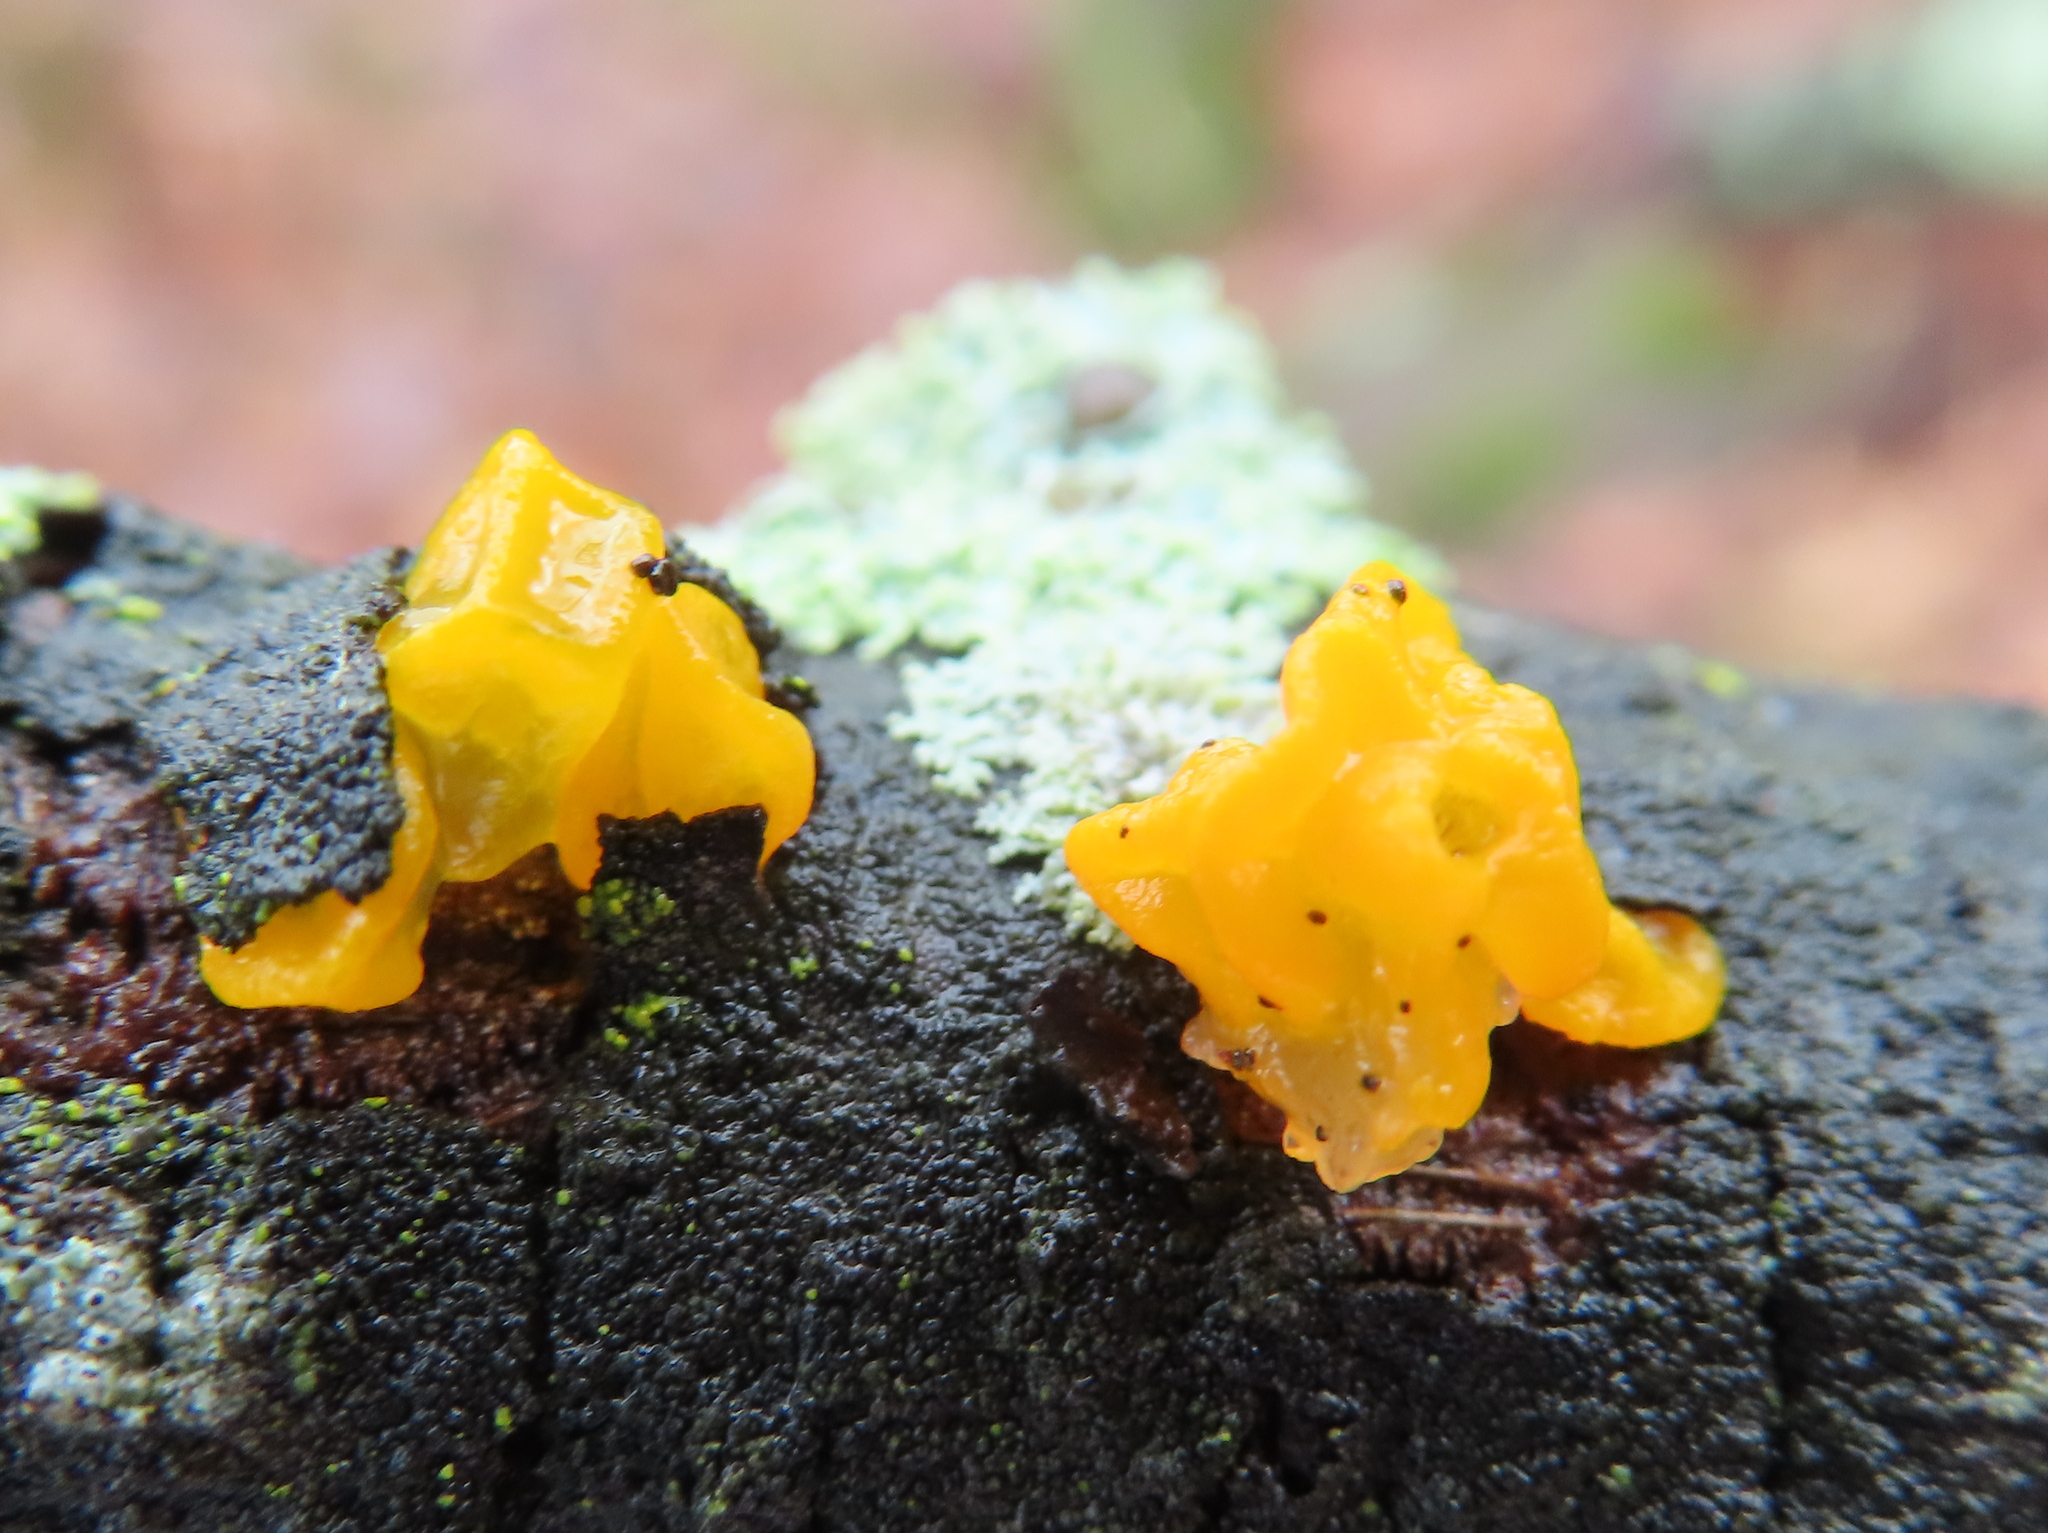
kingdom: Fungi
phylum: Basidiomycota
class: Tremellomycetes
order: Tremellales
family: Tremellaceae
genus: Tremella
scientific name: Tremella mesenterica
